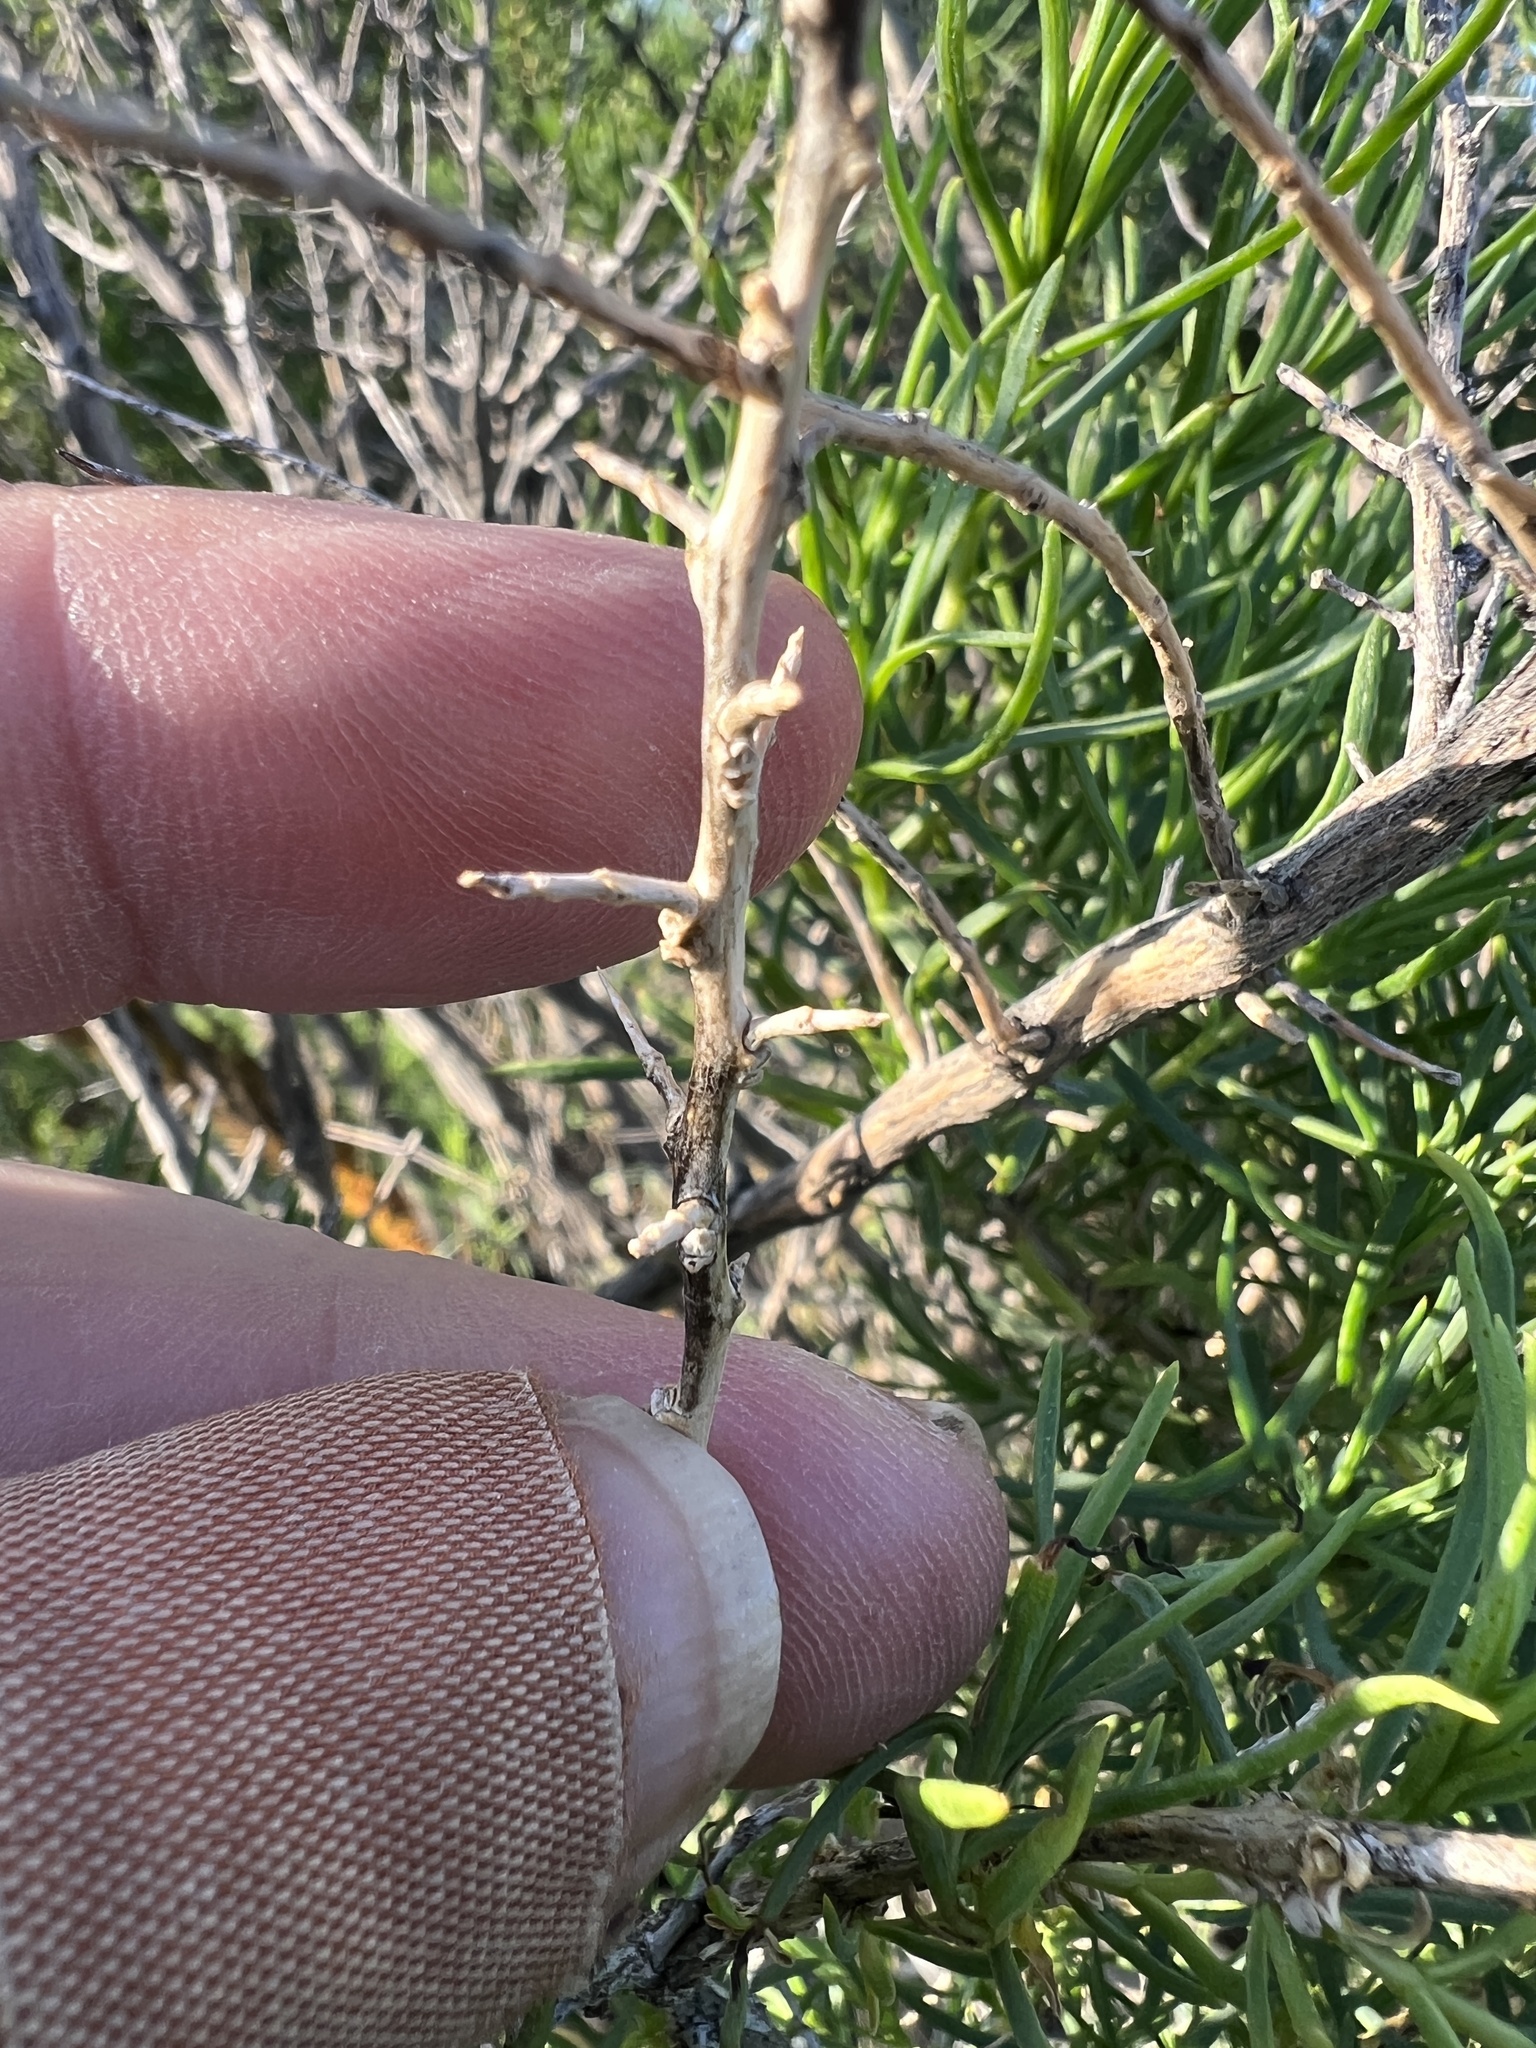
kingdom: Plantae
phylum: Tracheophyta
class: Magnoliopsida
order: Caryophyllales
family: Sarcobataceae
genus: Sarcobatus
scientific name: Sarcobatus vermiculatus
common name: Greasewood
